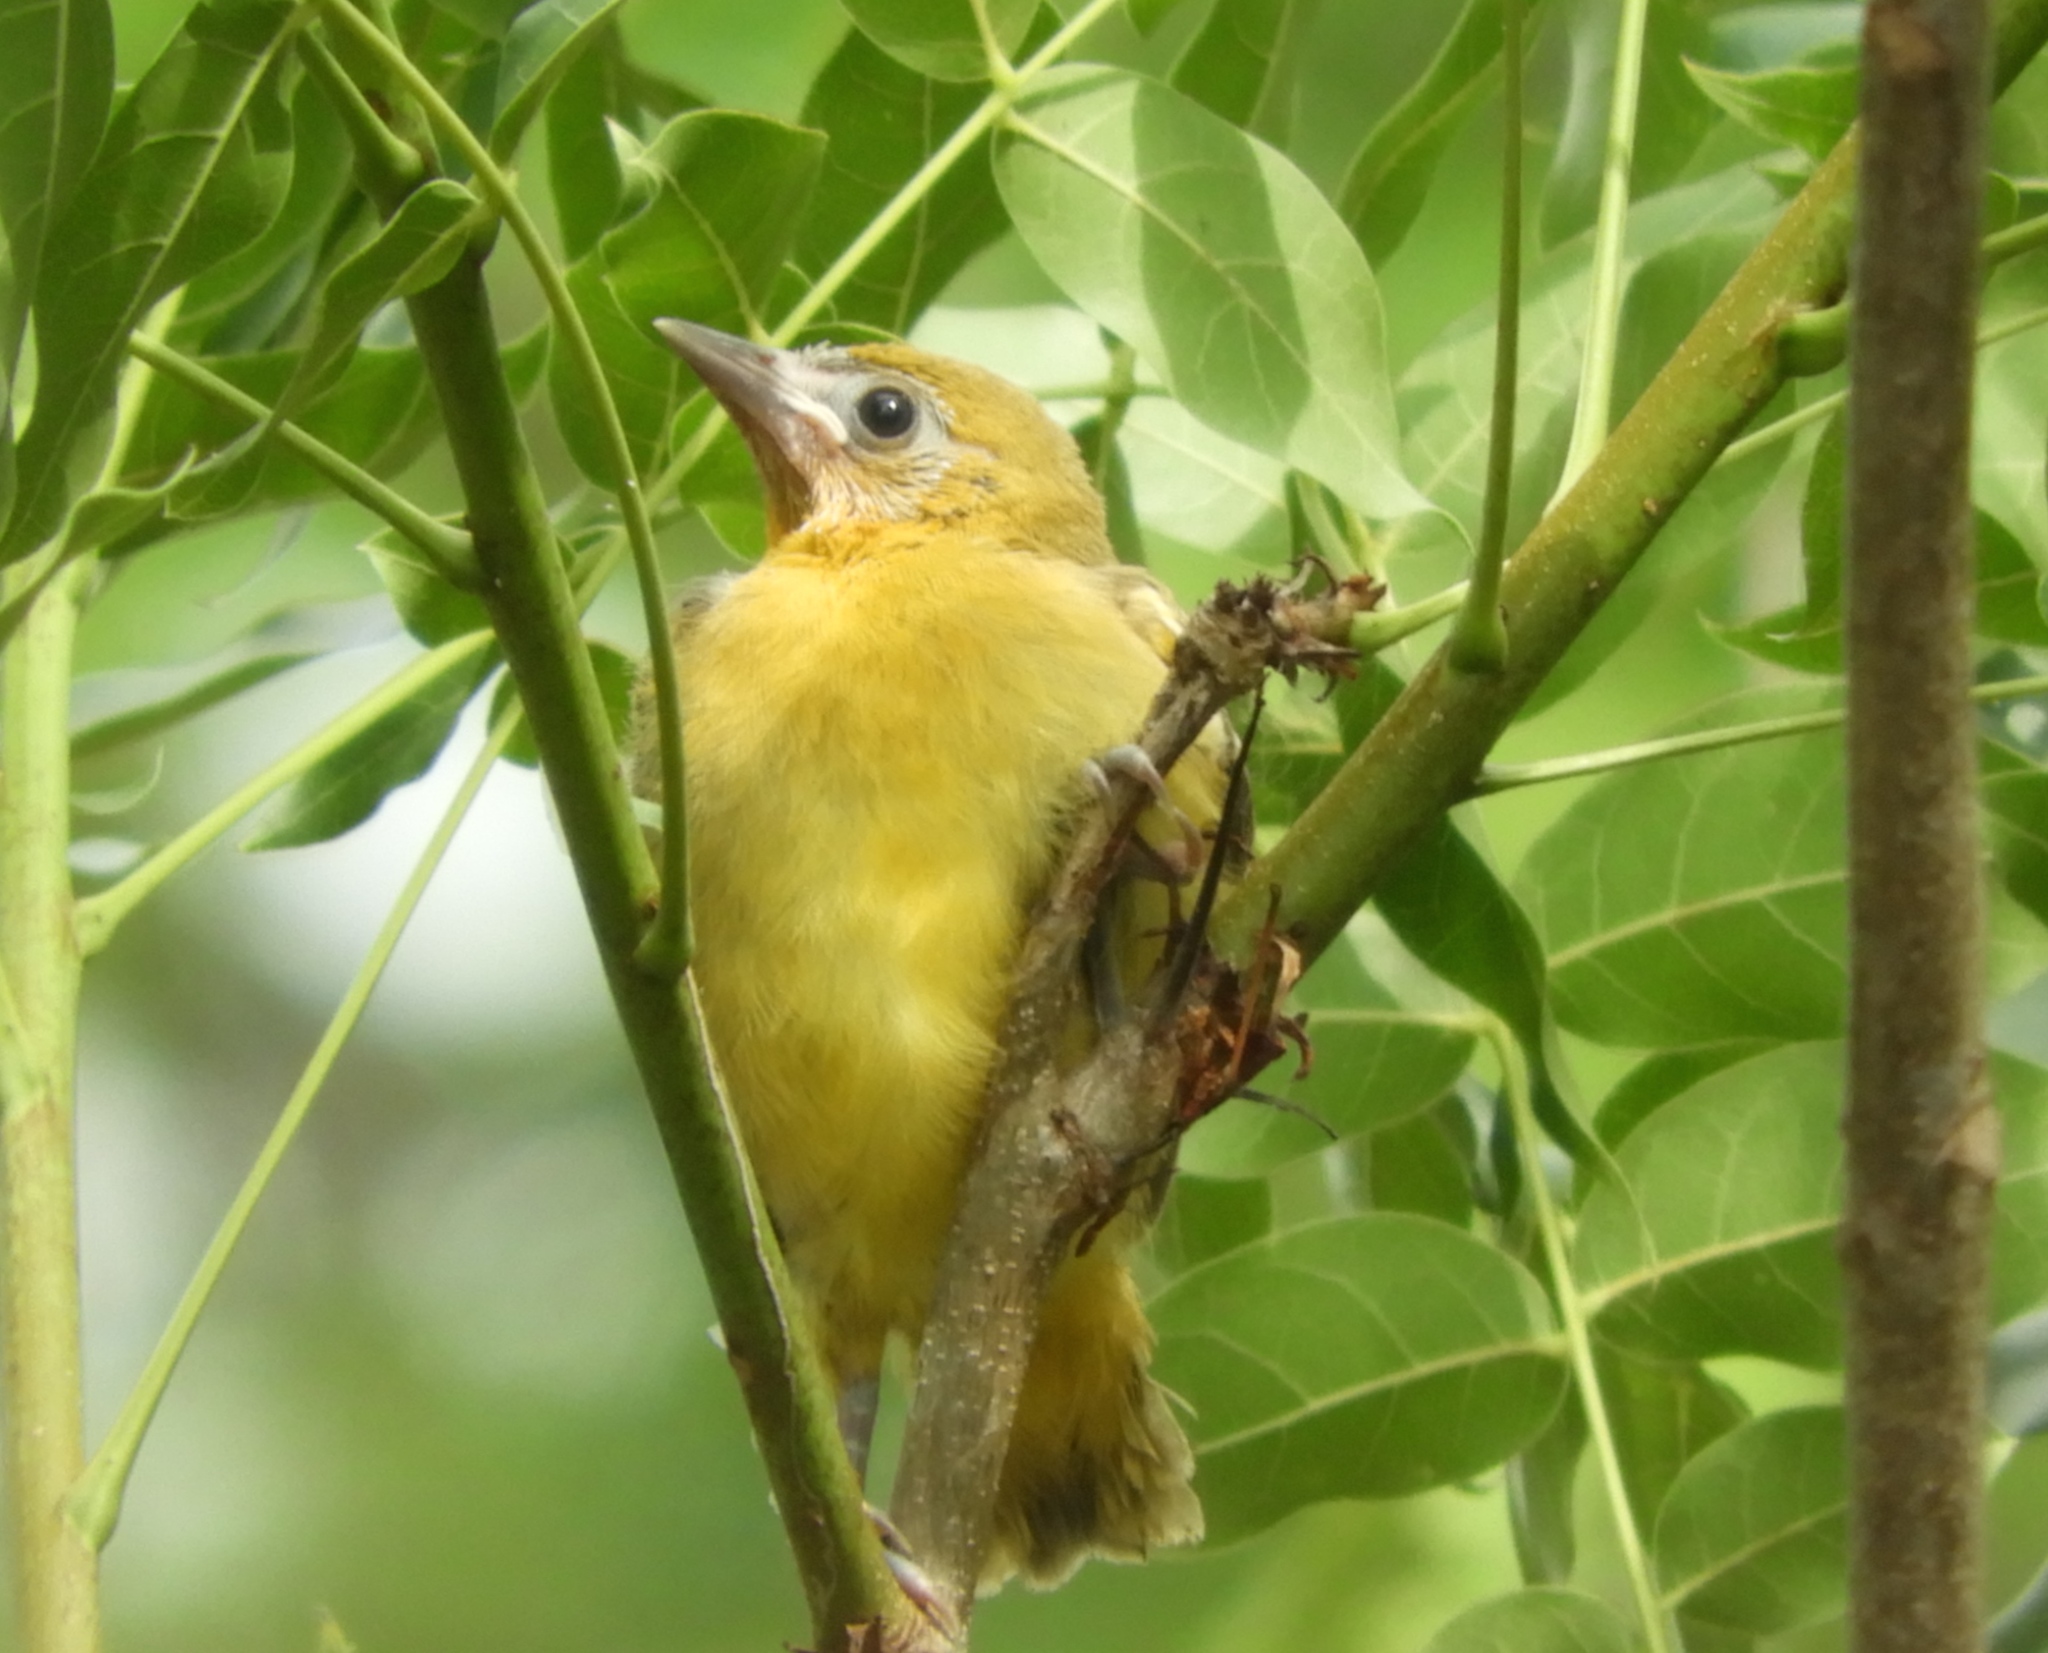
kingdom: Animalia
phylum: Chordata
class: Aves
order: Passeriformes
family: Icteridae
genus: Icterus
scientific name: Icterus
